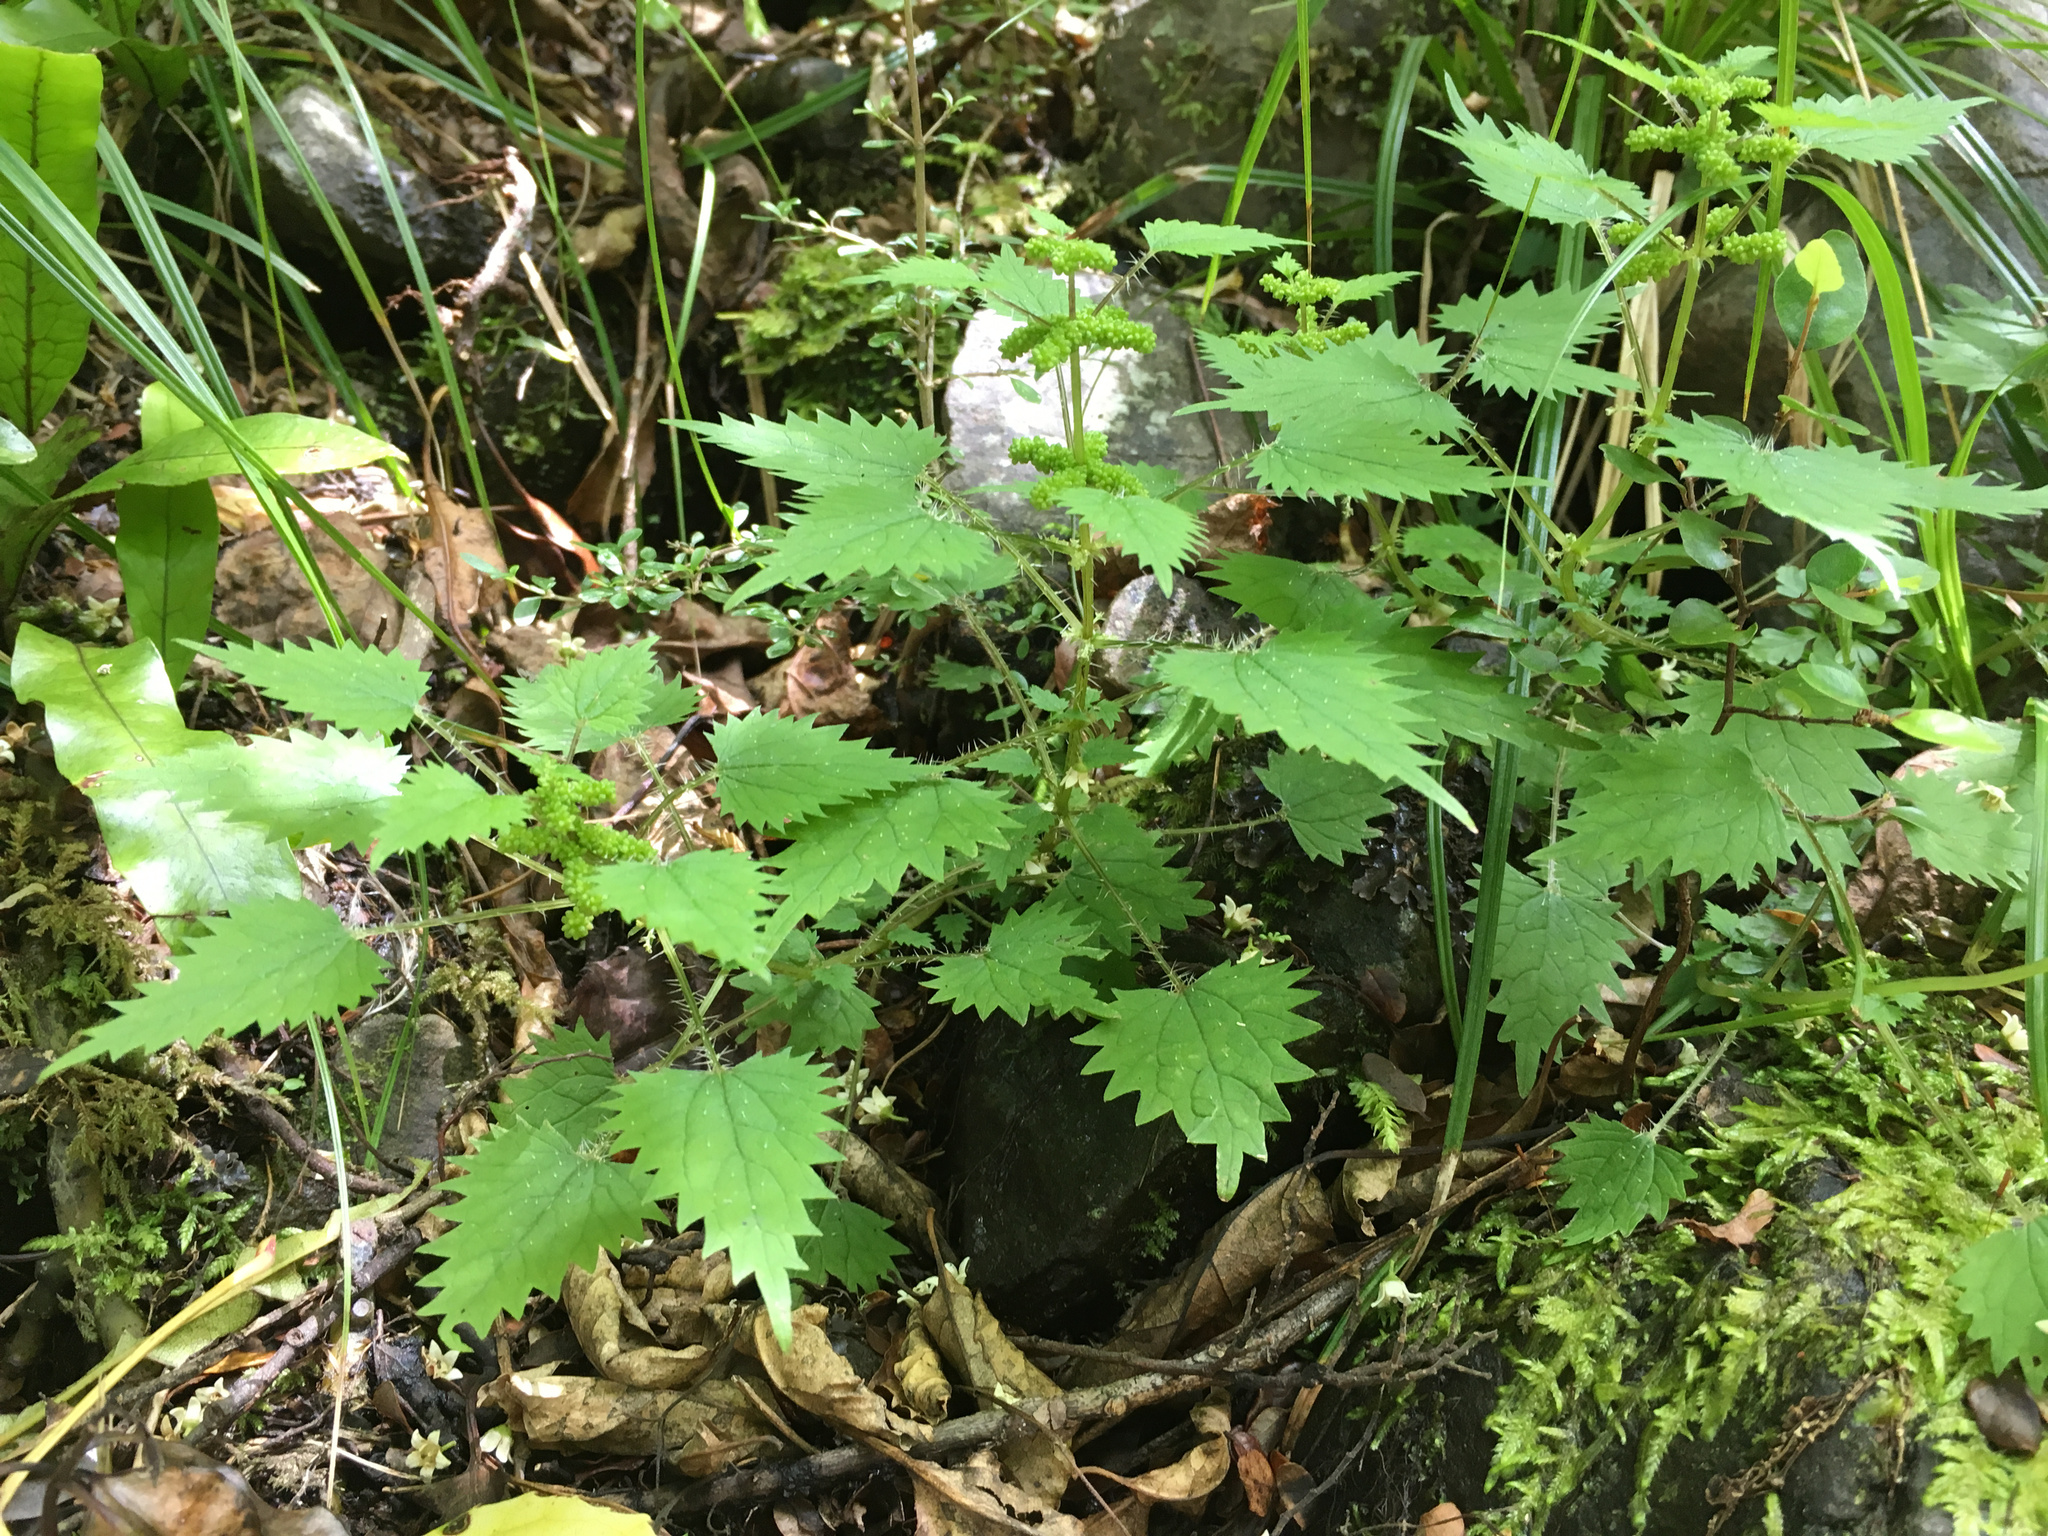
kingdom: Plantae
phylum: Tracheophyta
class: Magnoliopsida
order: Rosales
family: Urticaceae
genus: Urtica
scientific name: Urtica sykesii
